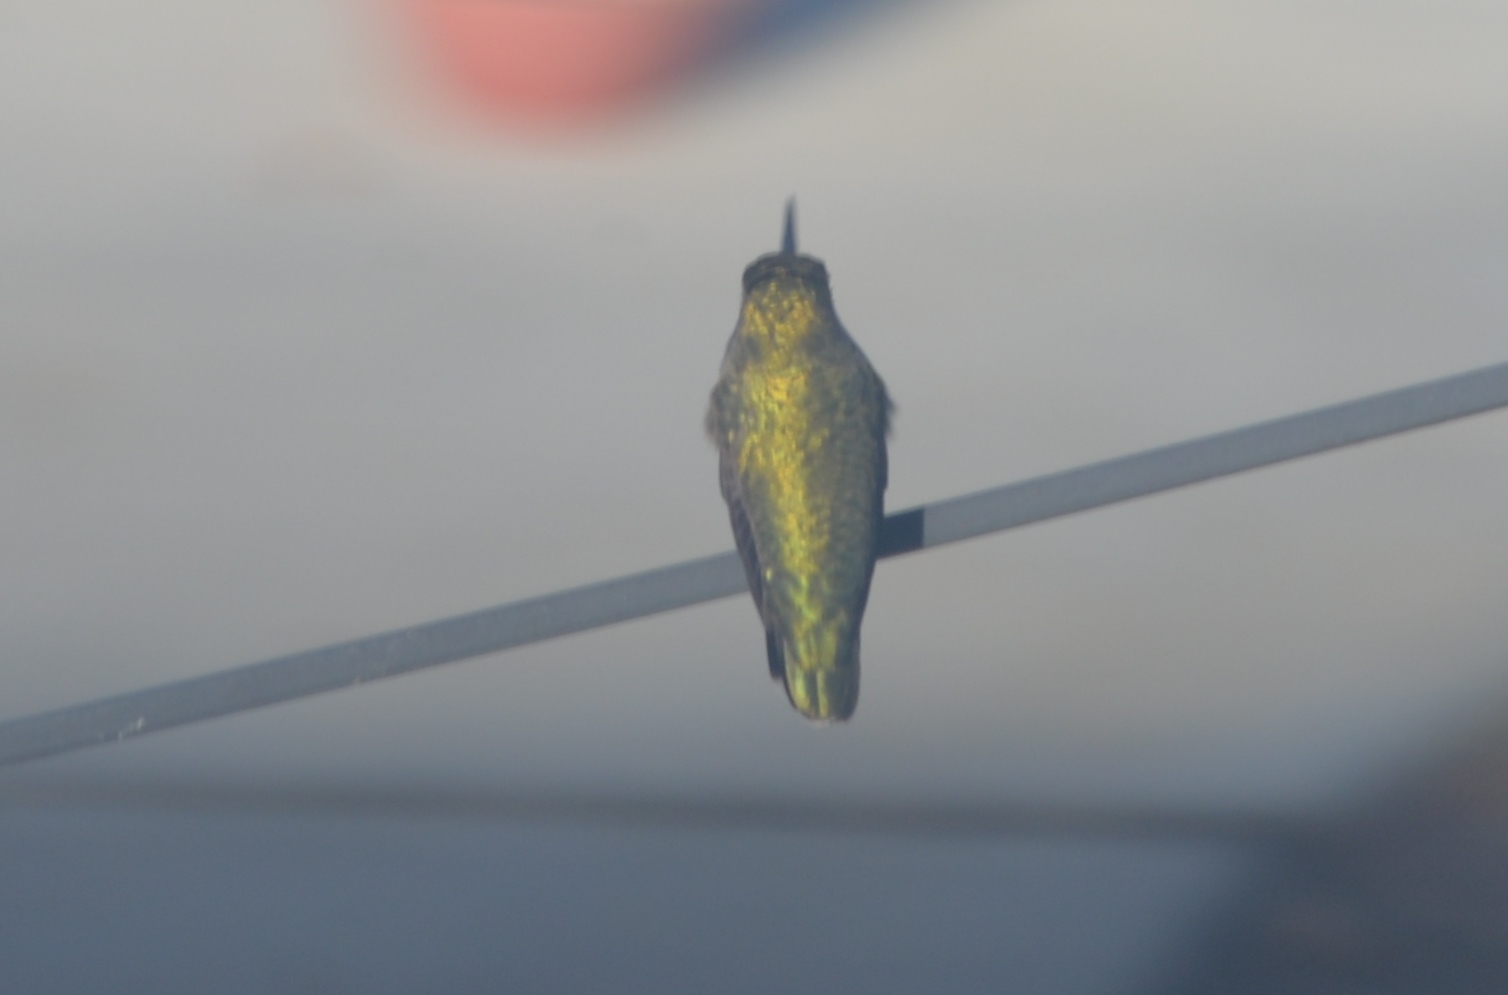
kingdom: Animalia
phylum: Chordata
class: Aves
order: Apodiformes
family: Trochilidae
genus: Calypte
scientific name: Calypte
